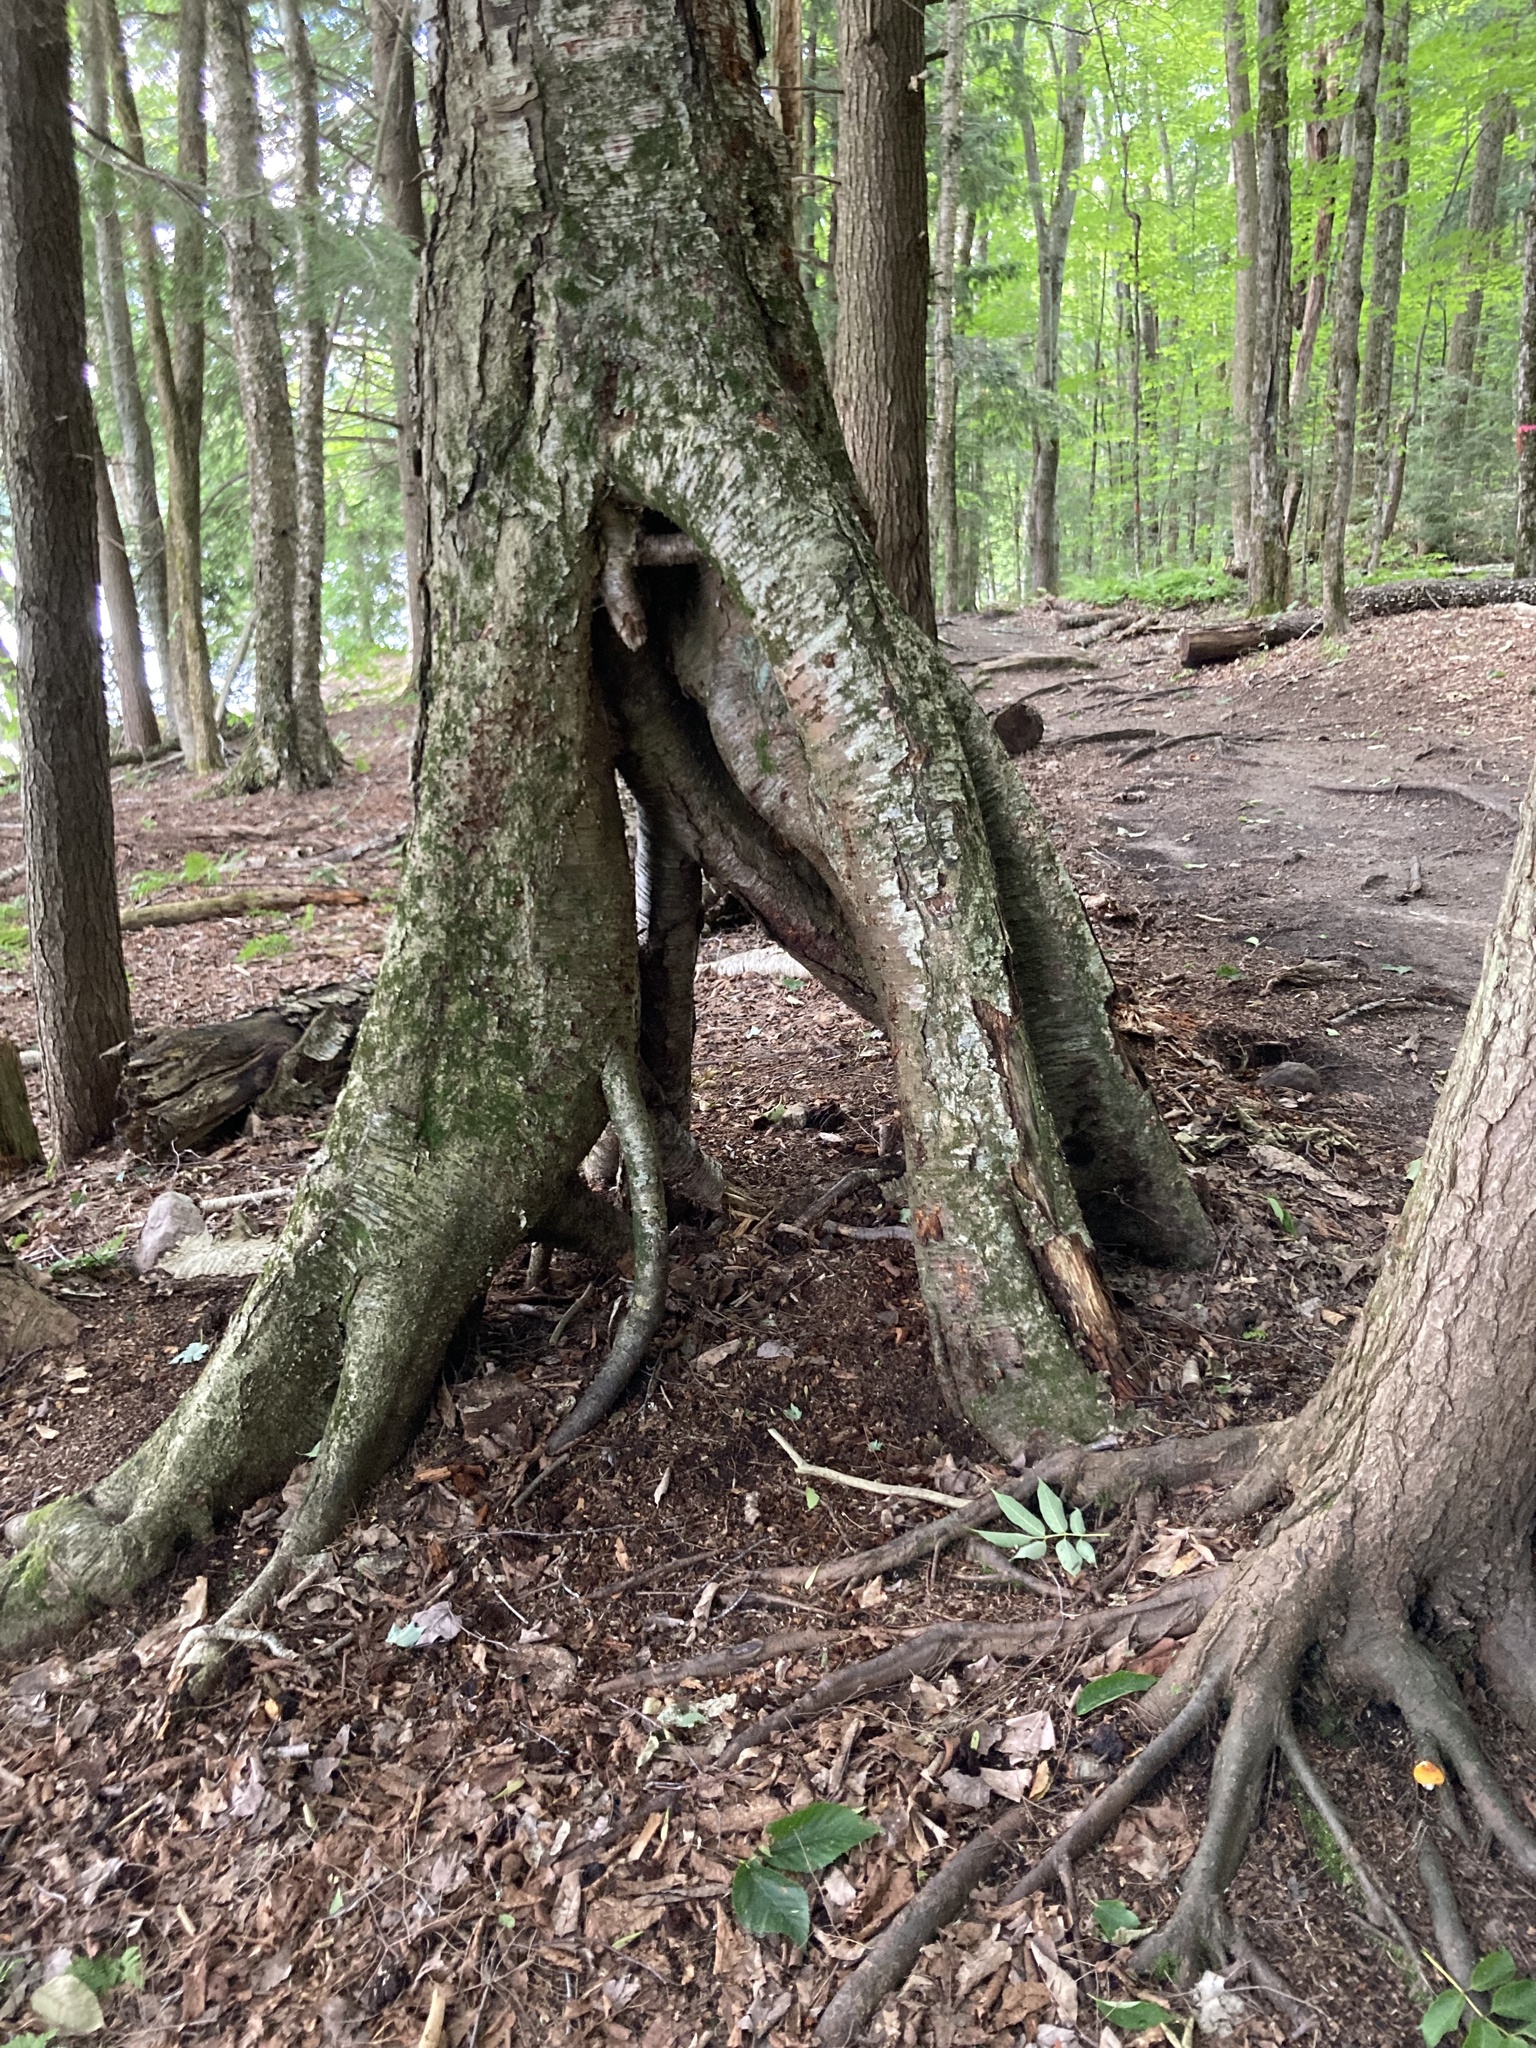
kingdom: Plantae
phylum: Tracheophyta
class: Magnoliopsida
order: Fagales
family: Betulaceae
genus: Betula
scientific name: Betula alleghaniensis
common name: Yellow birch
